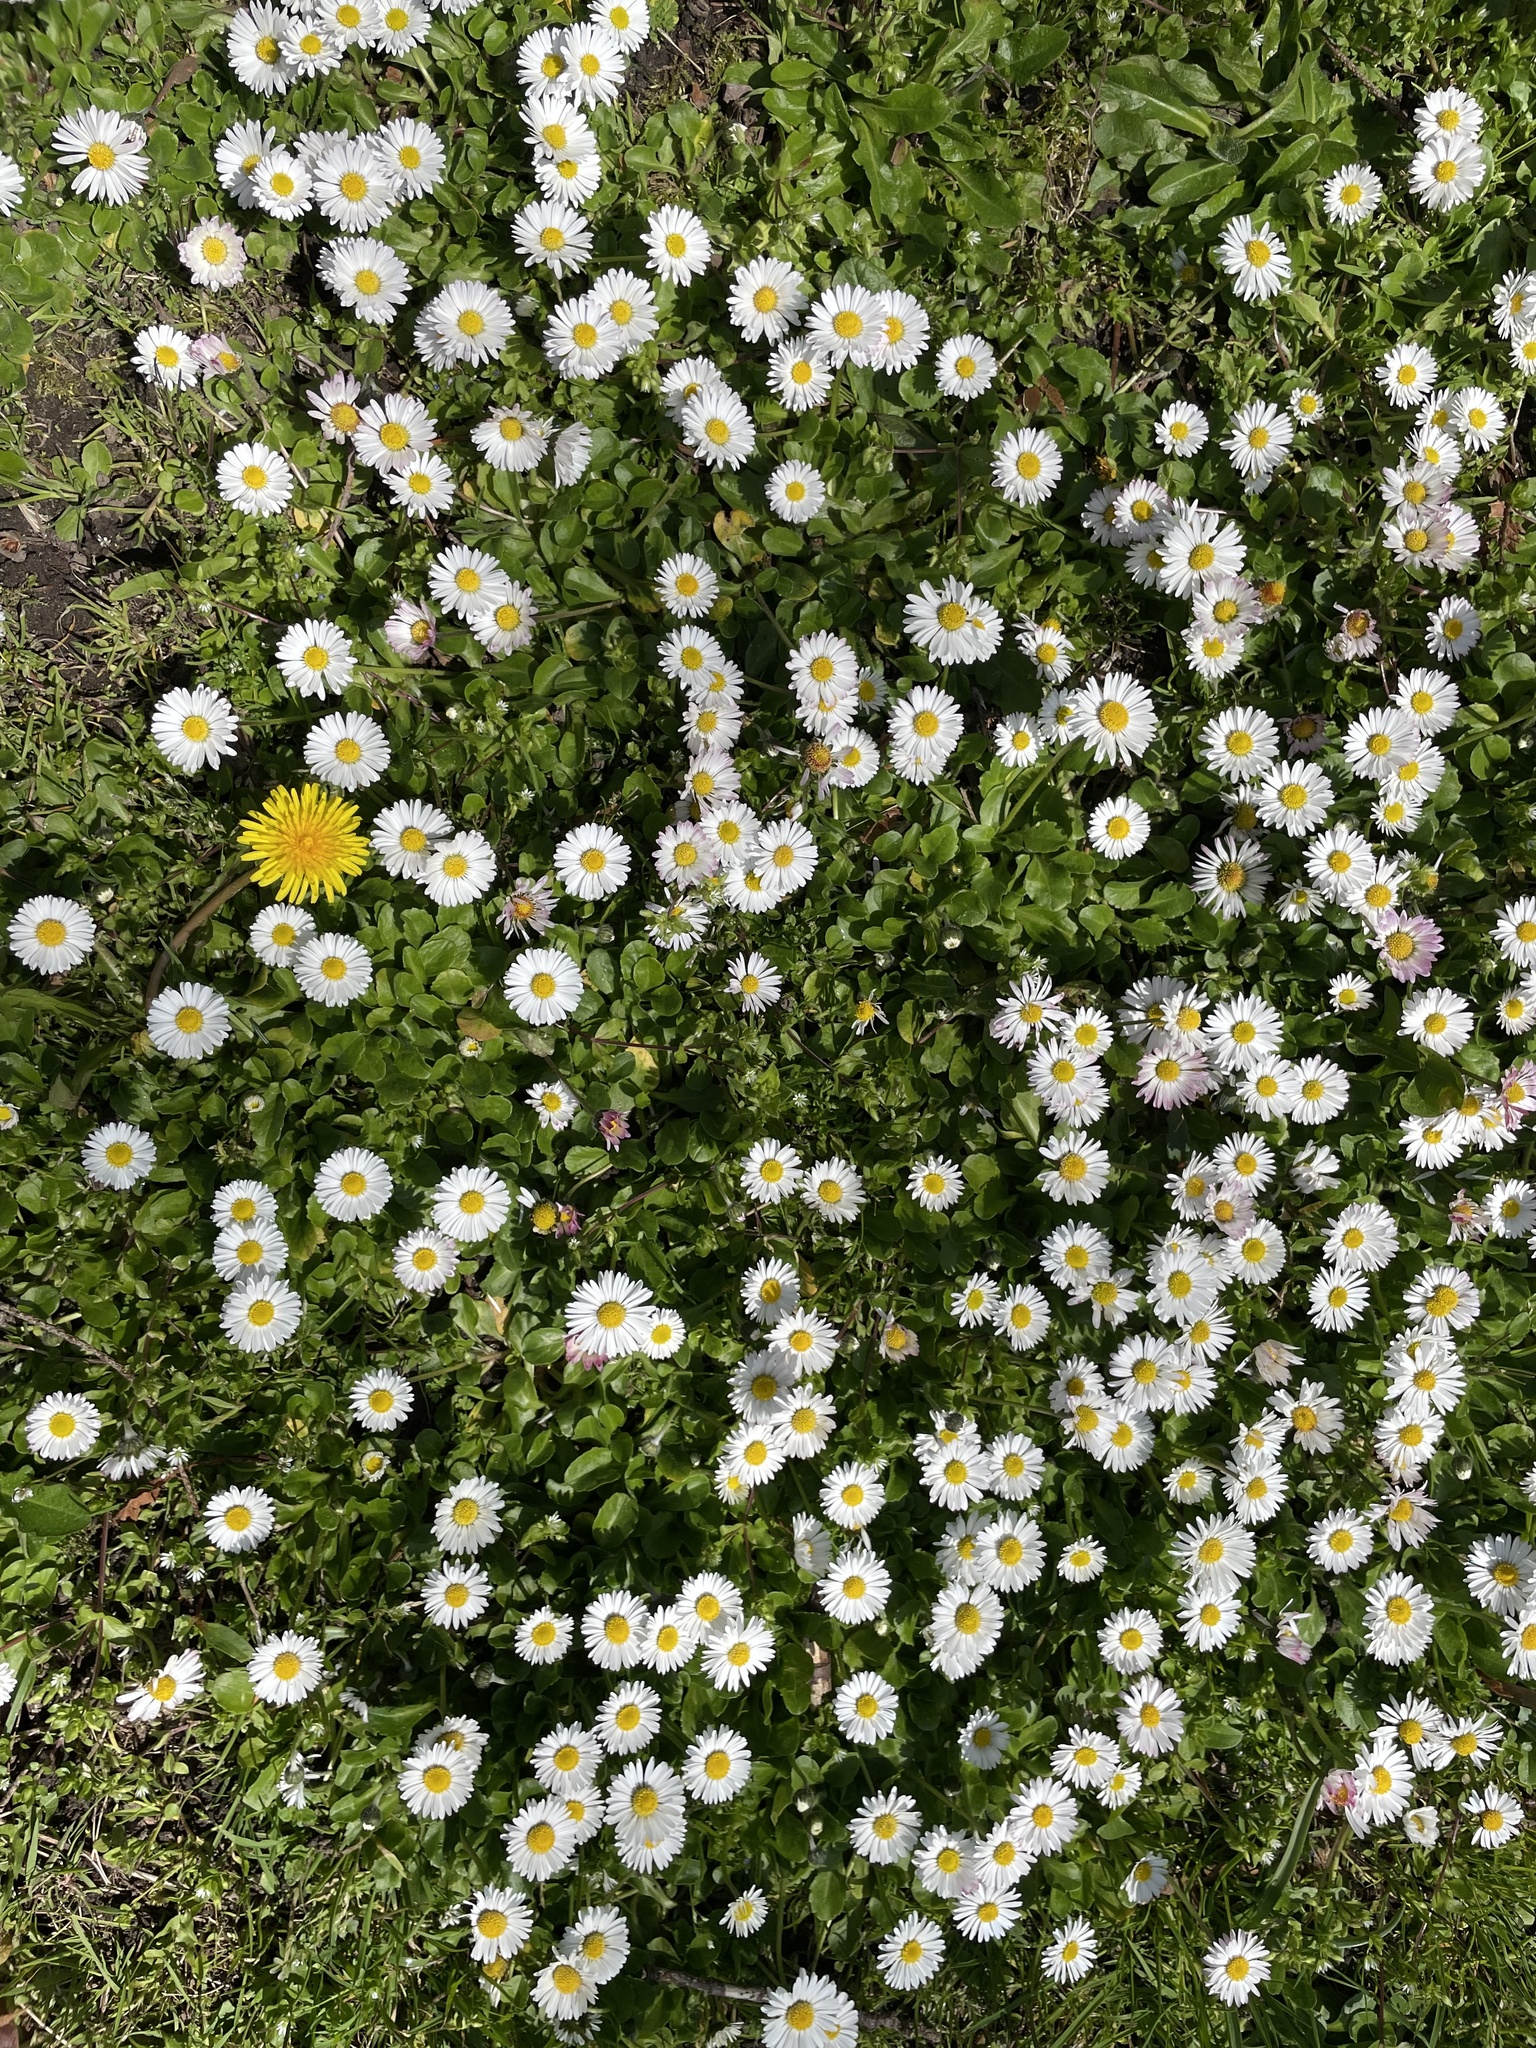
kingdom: Plantae
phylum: Tracheophyta
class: Magnoliopsida
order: Asterales
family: Asteraceae
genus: Bellis
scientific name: Bellis perennis
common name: Lawndaisy
